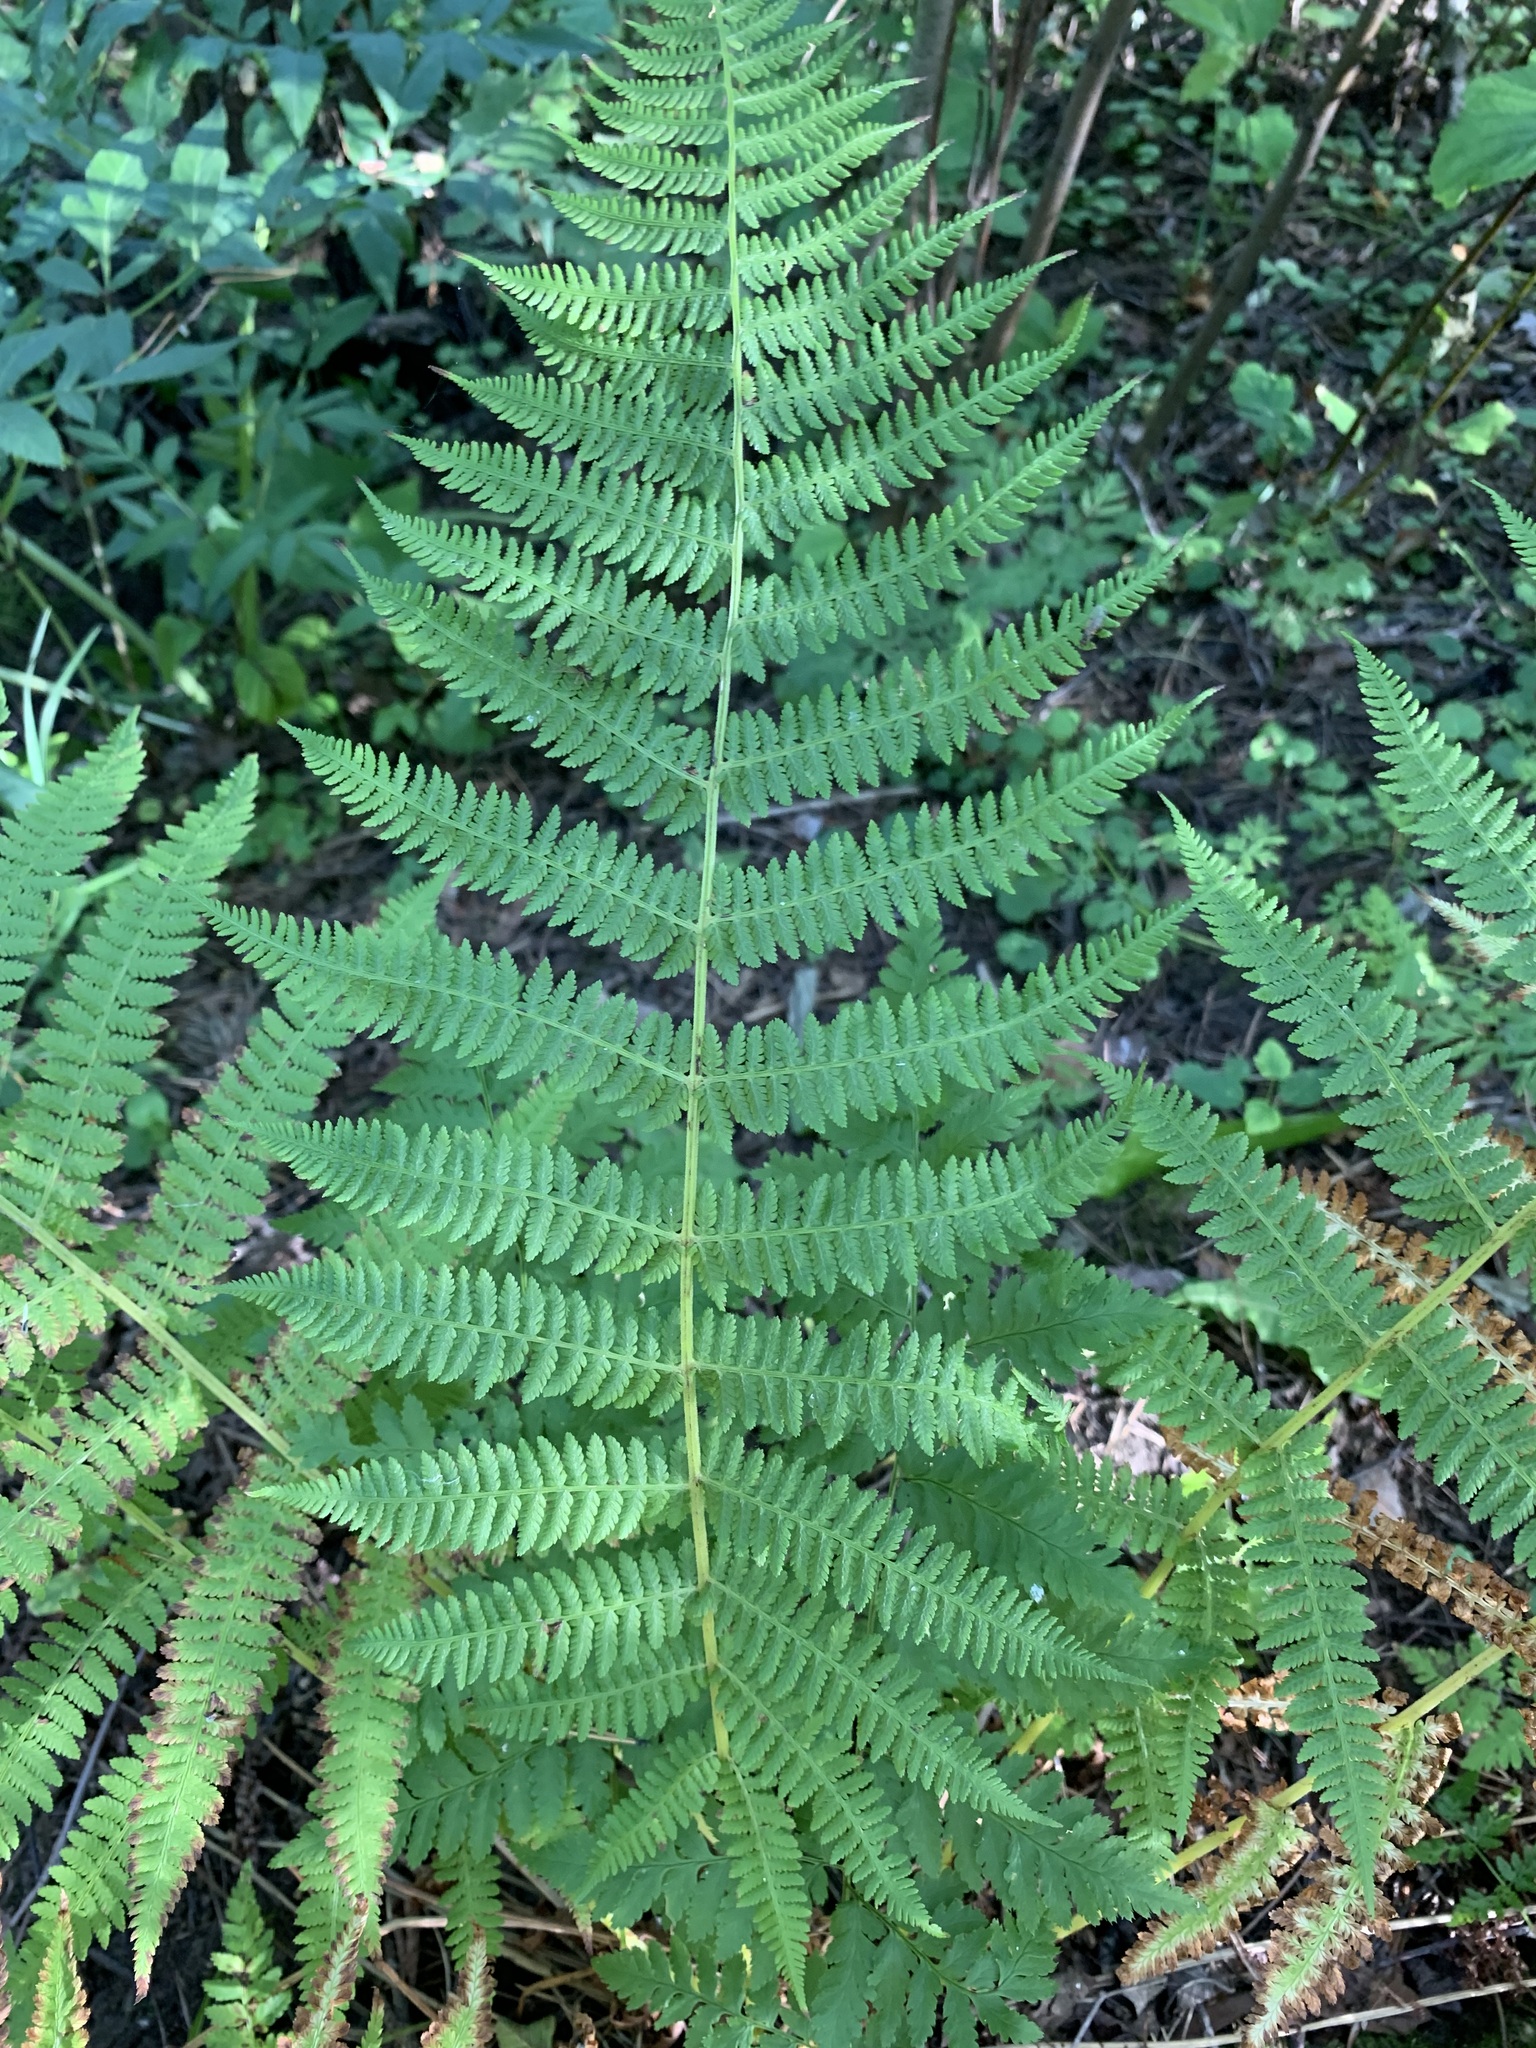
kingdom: Plantae
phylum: Tracheophyta
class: Polypodiopsida
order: Polypodiales
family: Athyriaceae
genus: Athyrium
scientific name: Athyrium filix-femina
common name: Lady fern
